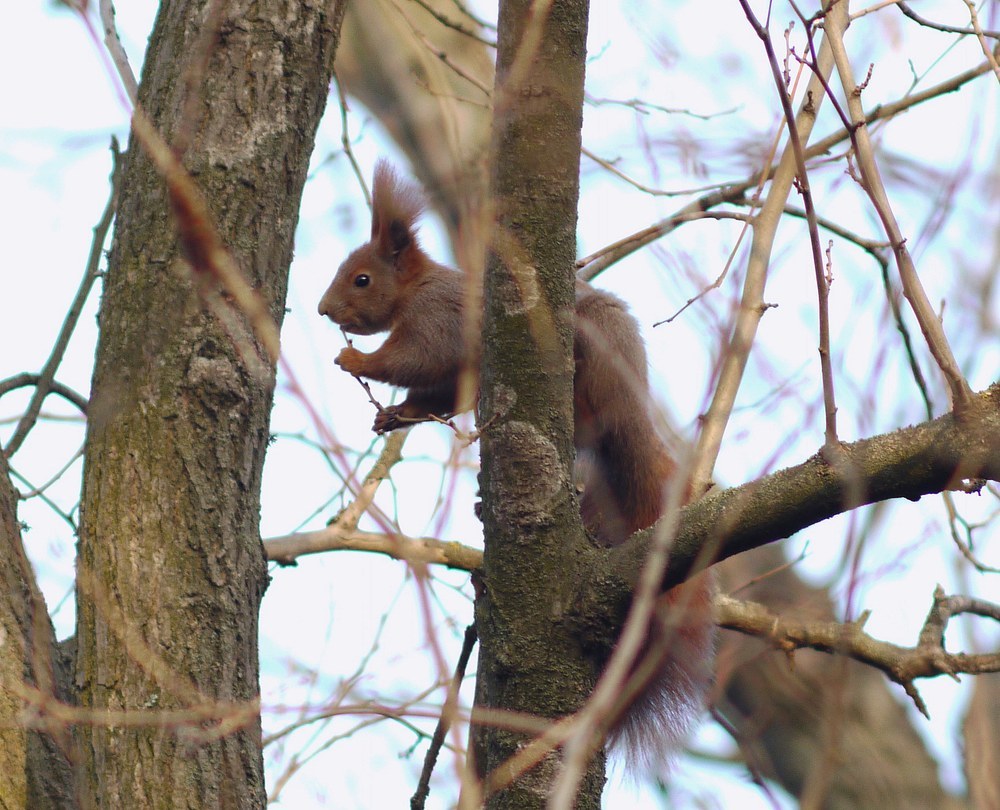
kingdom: Animalia
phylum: Chordata
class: Mammalia
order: Rodentia
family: Sciuridae
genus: Sciurus
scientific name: Sciurus vulgaris
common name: Eurasian red squirrel
